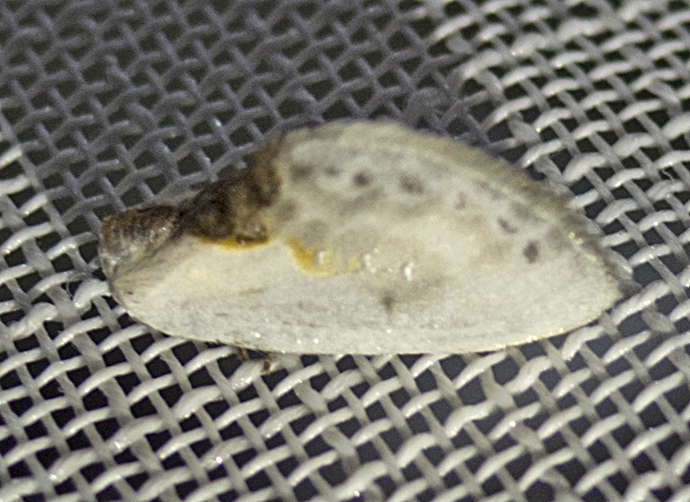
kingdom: Animalia
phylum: Arthropoda
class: Insecta
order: Lepidoptera
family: Drepanidae
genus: Cilix
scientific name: Cilix glaucata
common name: Chinese character
